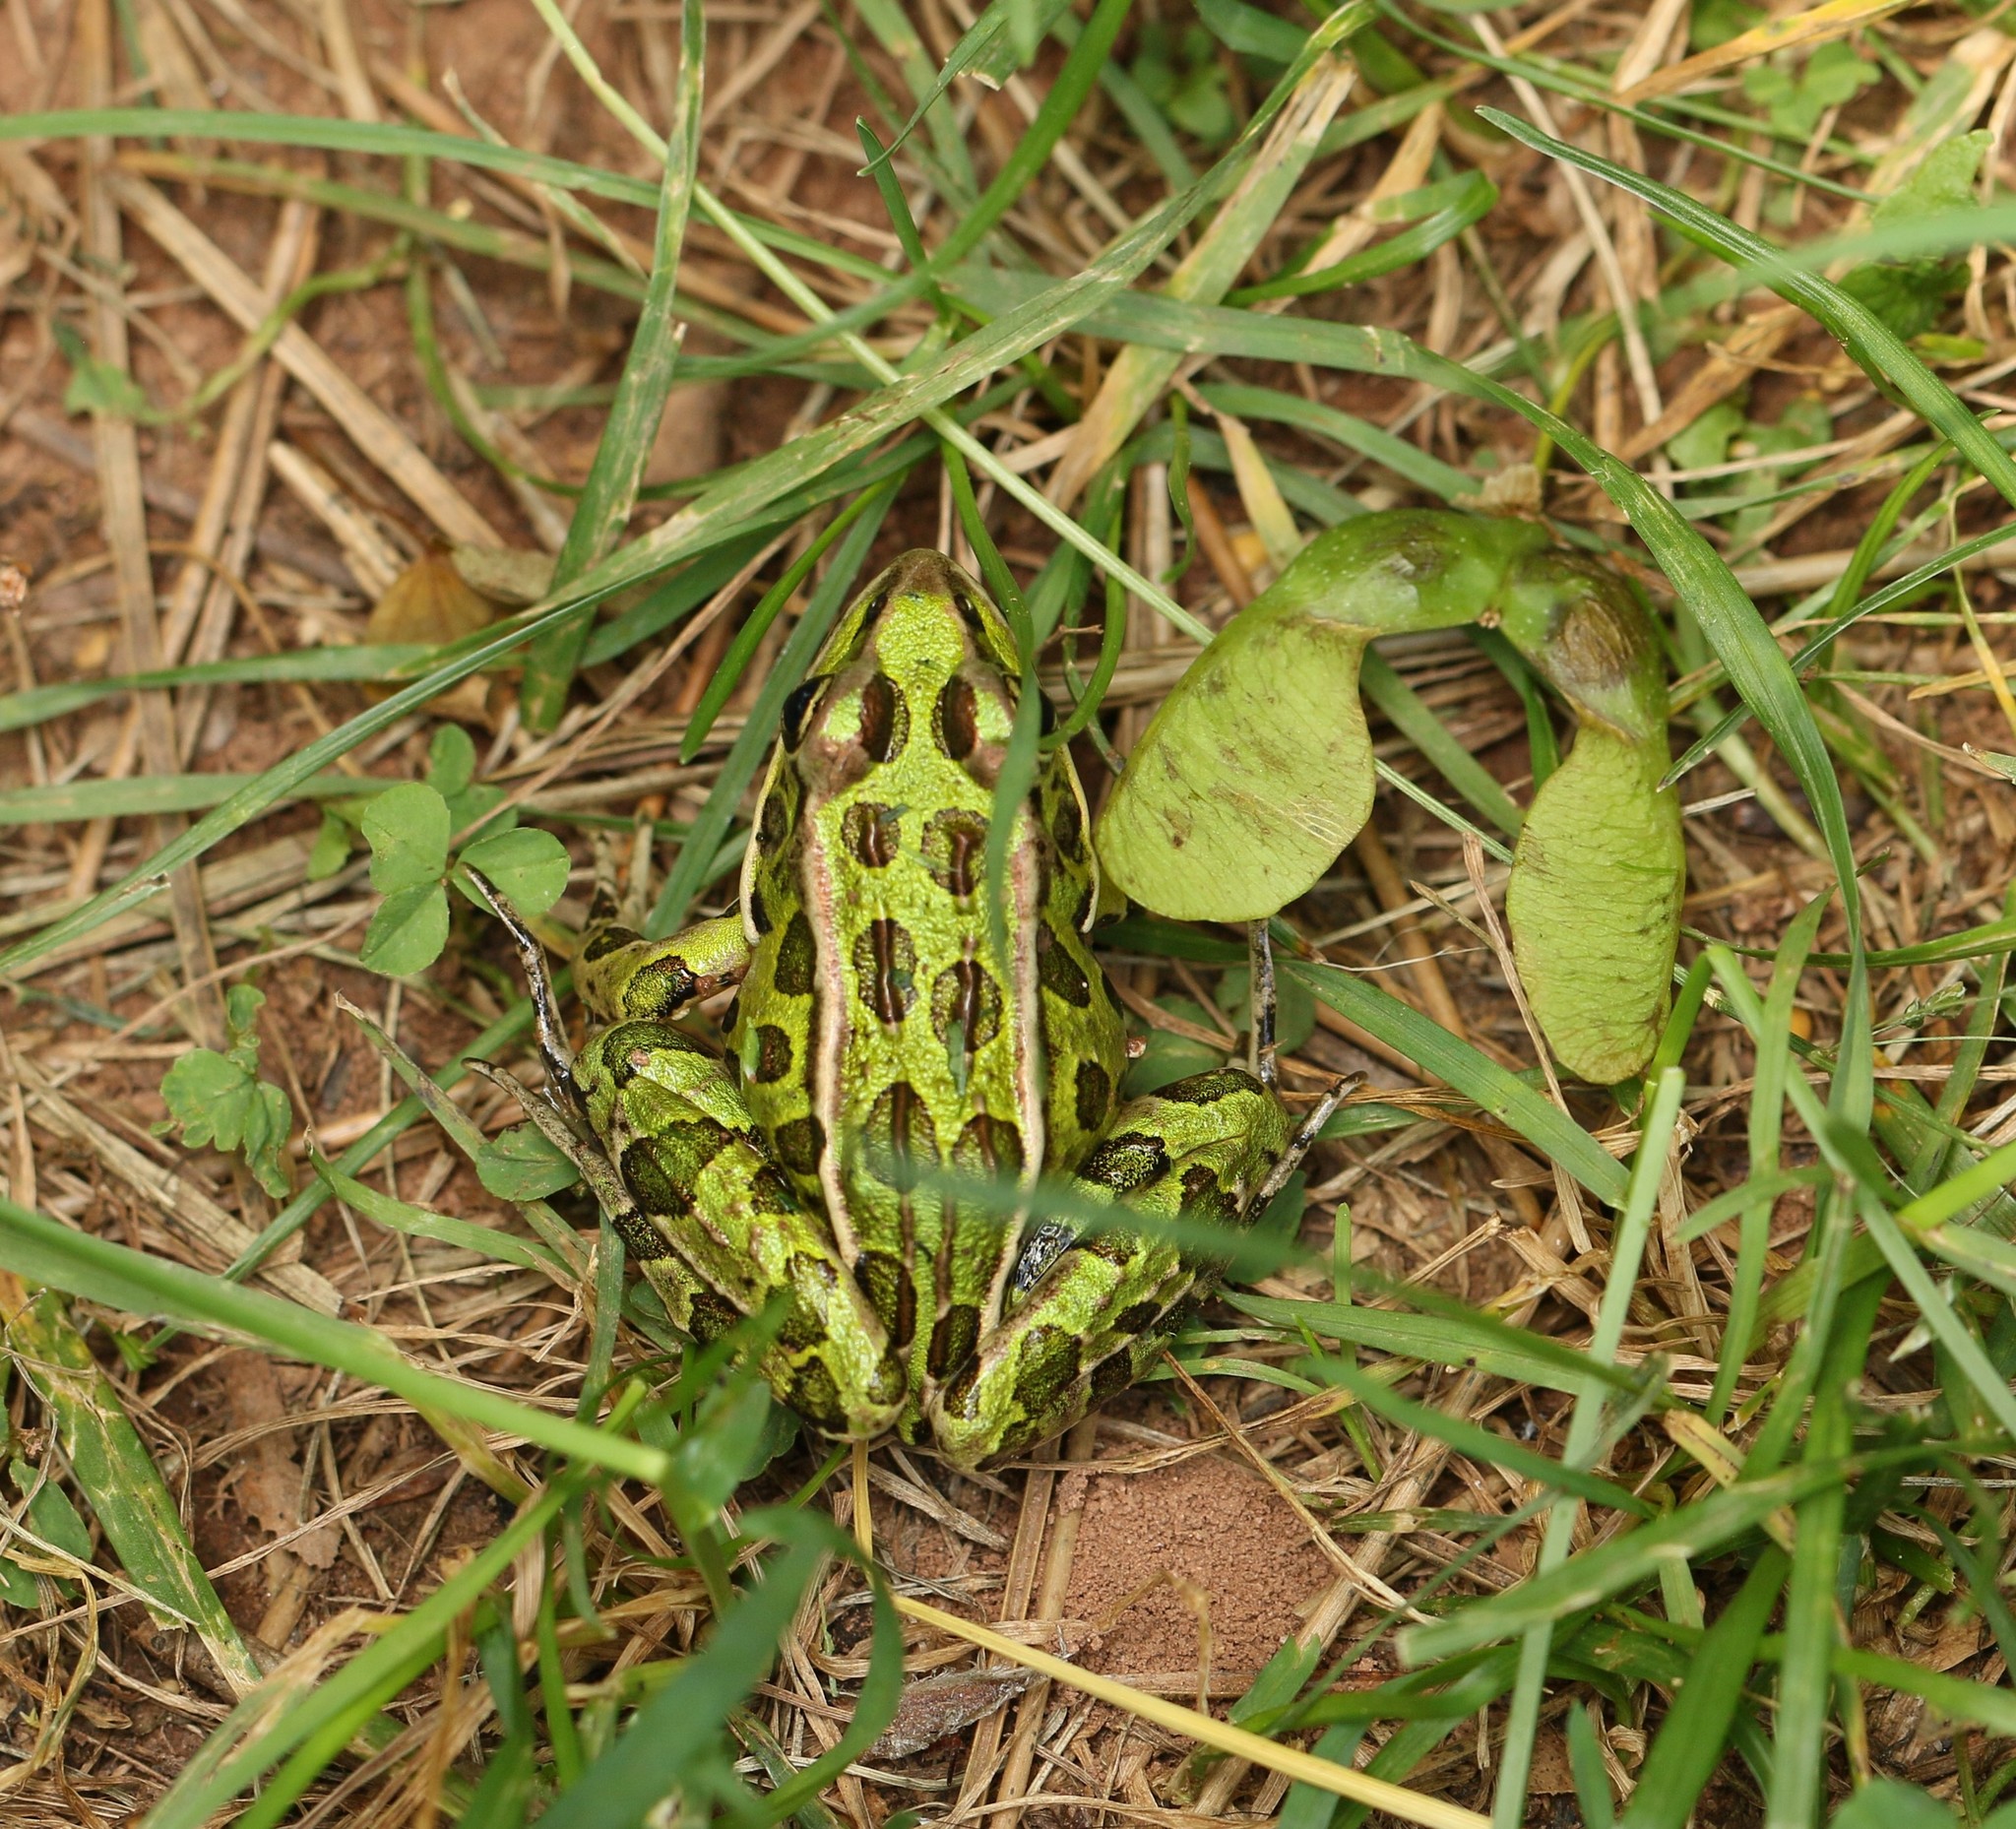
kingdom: Animalia
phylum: Chordata
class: Amphibia
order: Anura
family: Ranidae
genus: Lithobates
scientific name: Lithobates pipiens
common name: Northern leopard frog
